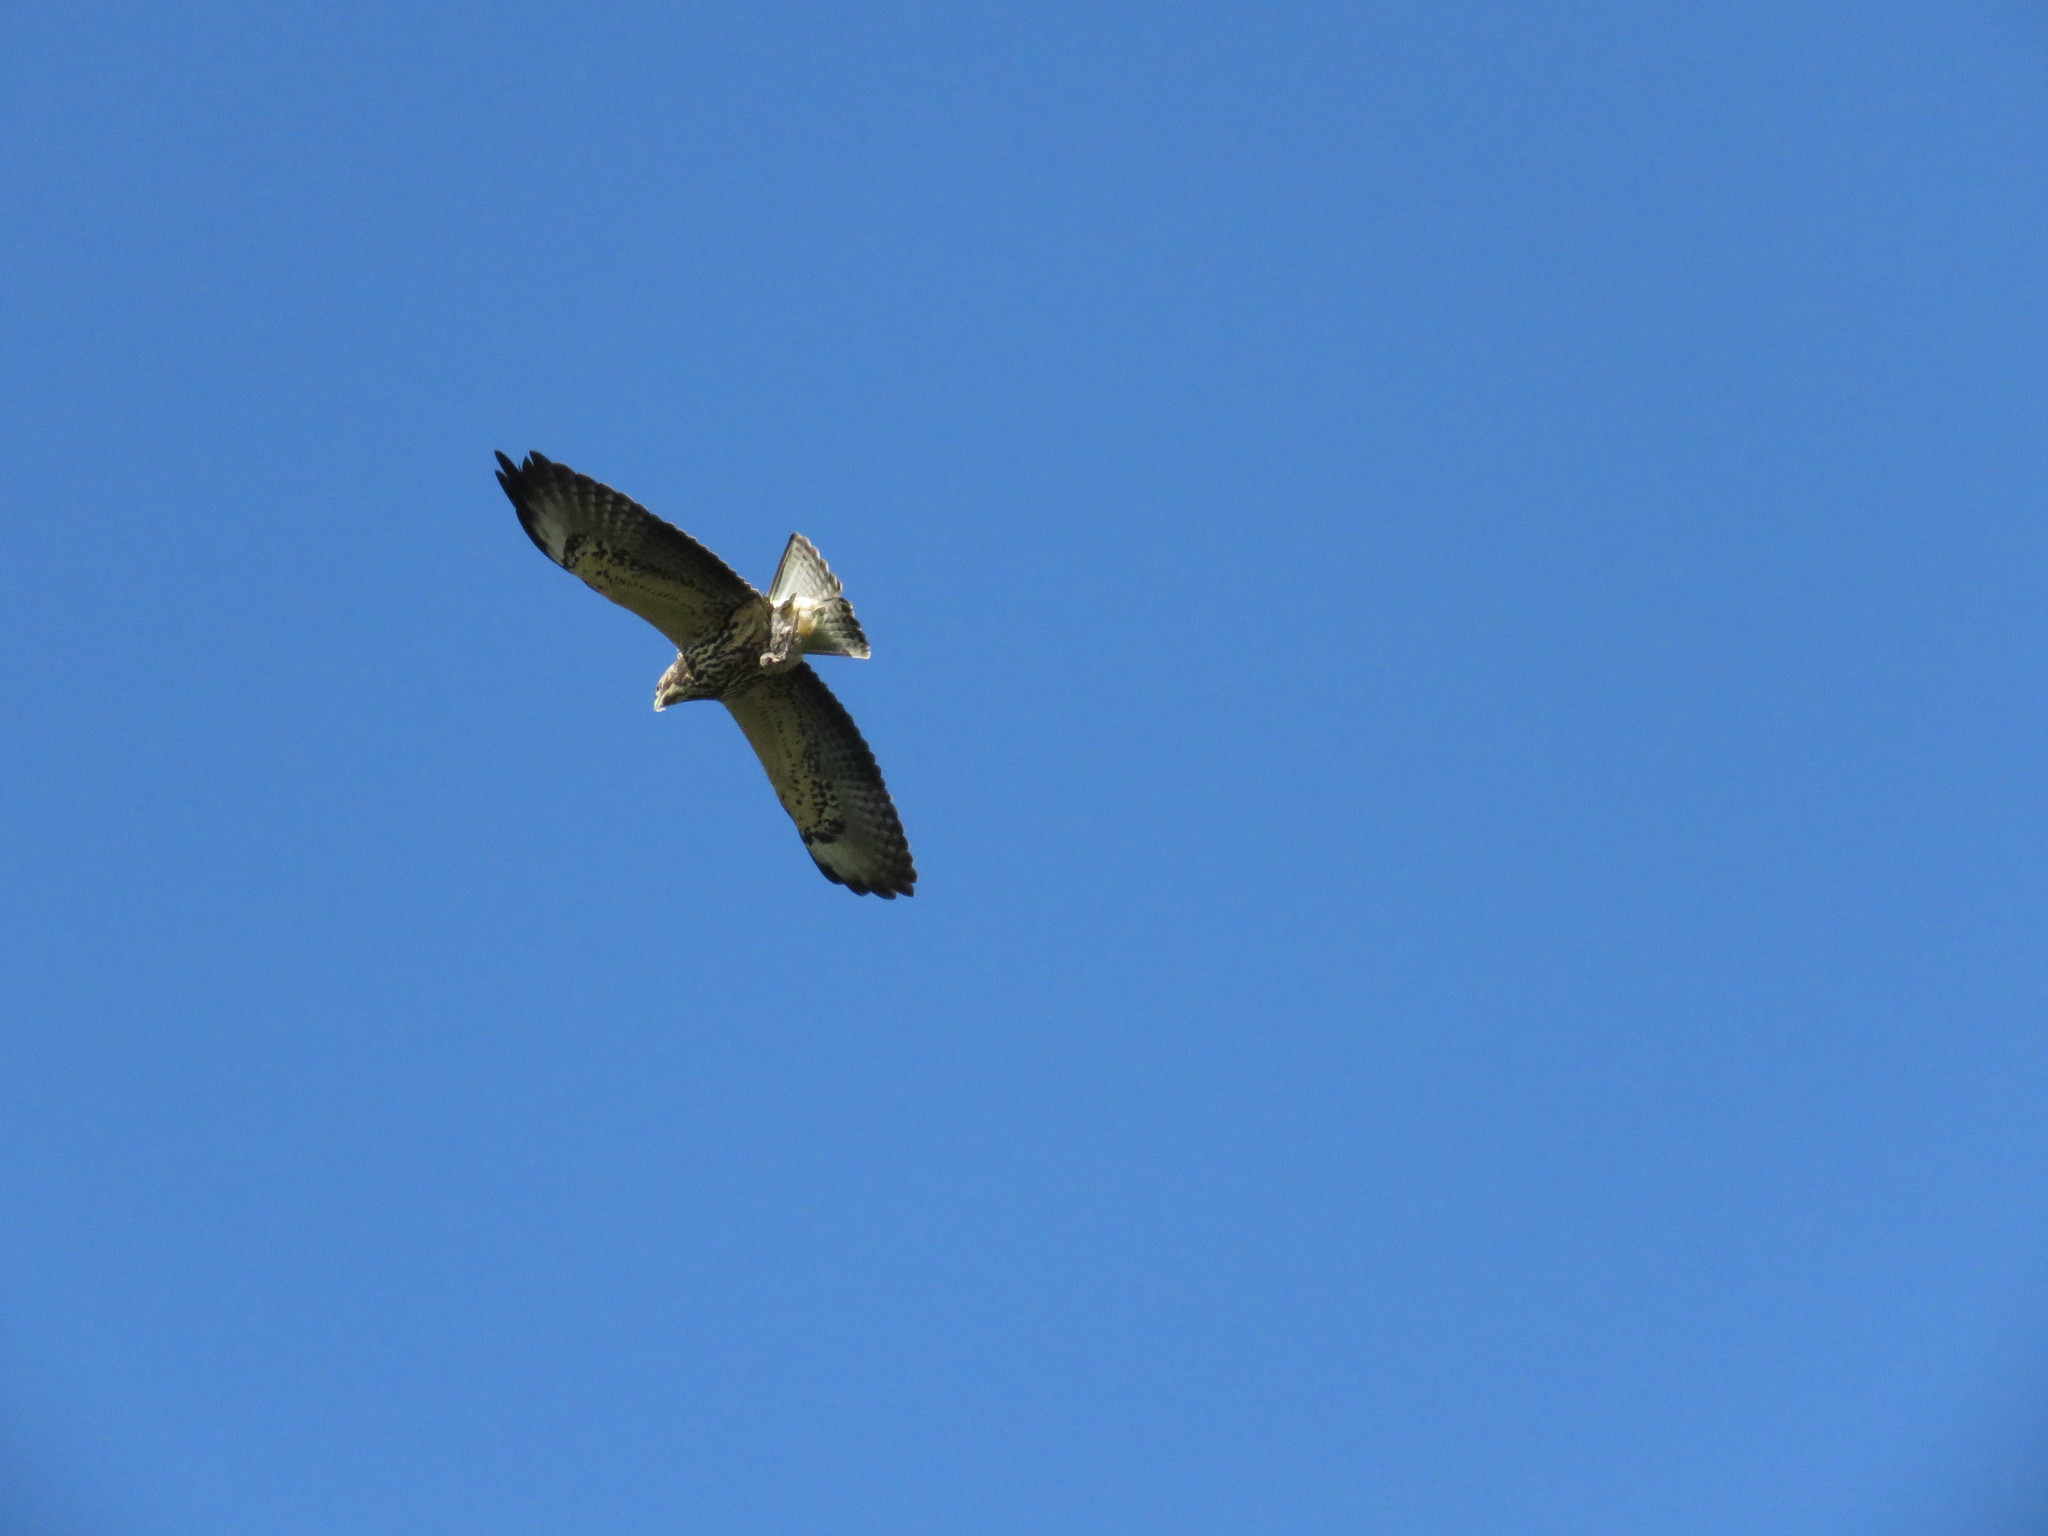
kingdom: Animalia
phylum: Chordata
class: Aves
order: Accipitriformes
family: Accipitridae
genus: Buteo
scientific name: Buteo swainsoni
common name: Swainson's hawk
